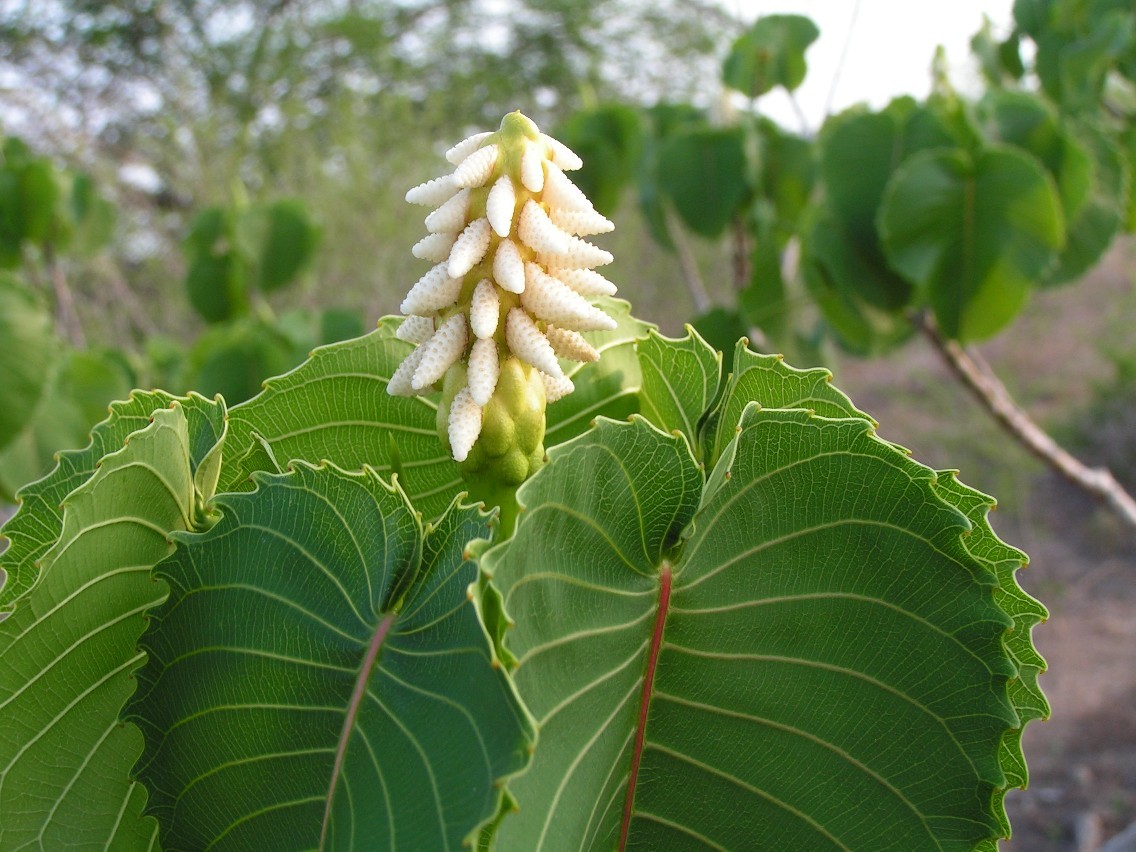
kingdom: Plantae
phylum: Tracheophyta
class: Magnoliopsida
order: Malpighiales
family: Euphorbiaceae
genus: Hura
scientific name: Hura polyandra
